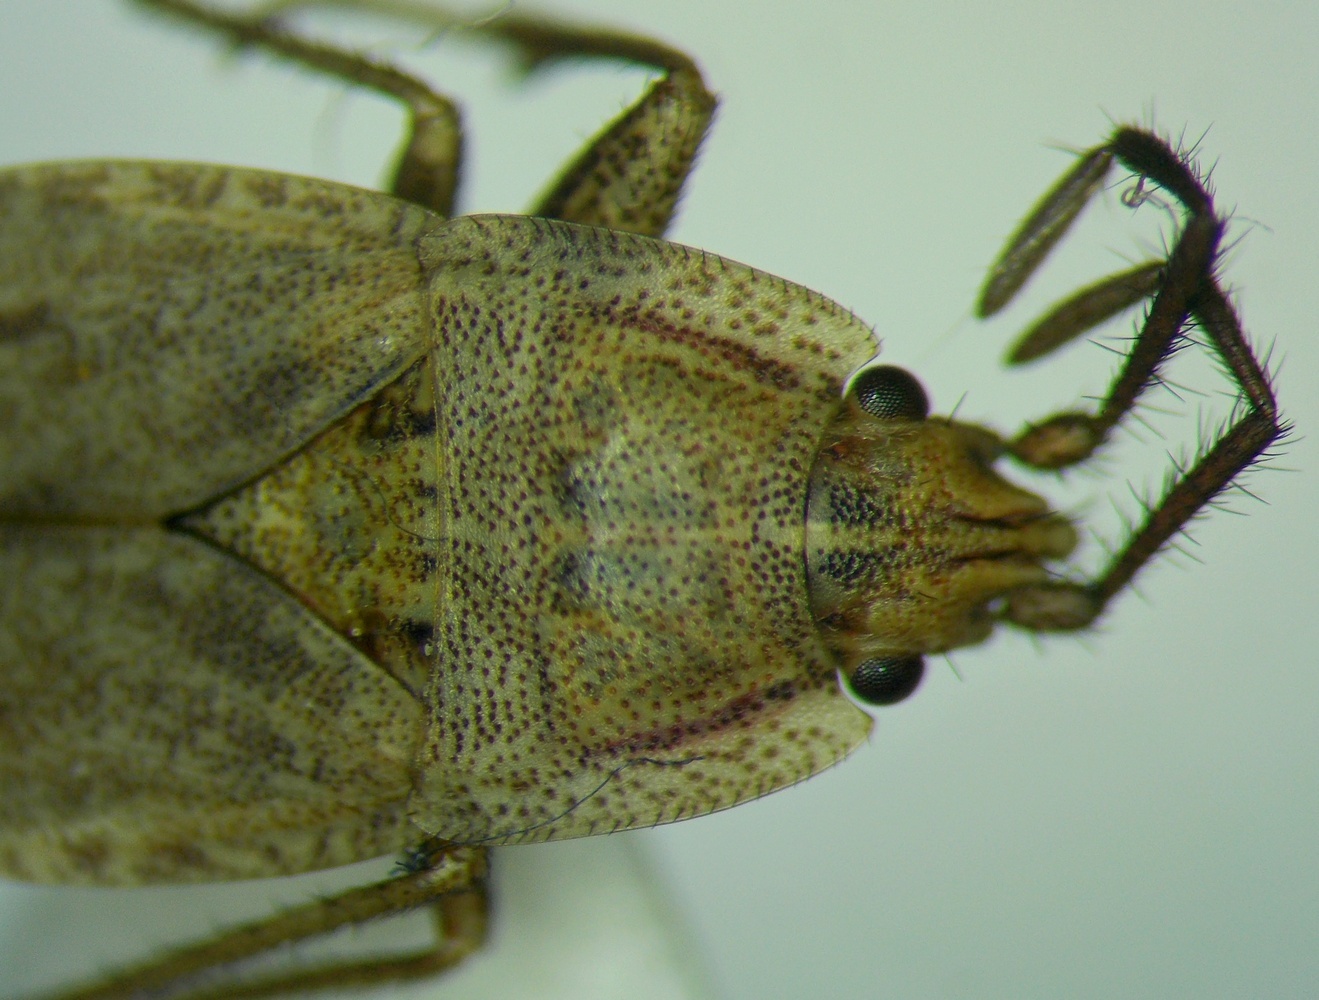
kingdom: Animalia
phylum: Arthropoda
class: Insecta
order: Hemiptera
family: Rhyparochromidae
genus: Emblethis
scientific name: Emblethis dilaticollis
